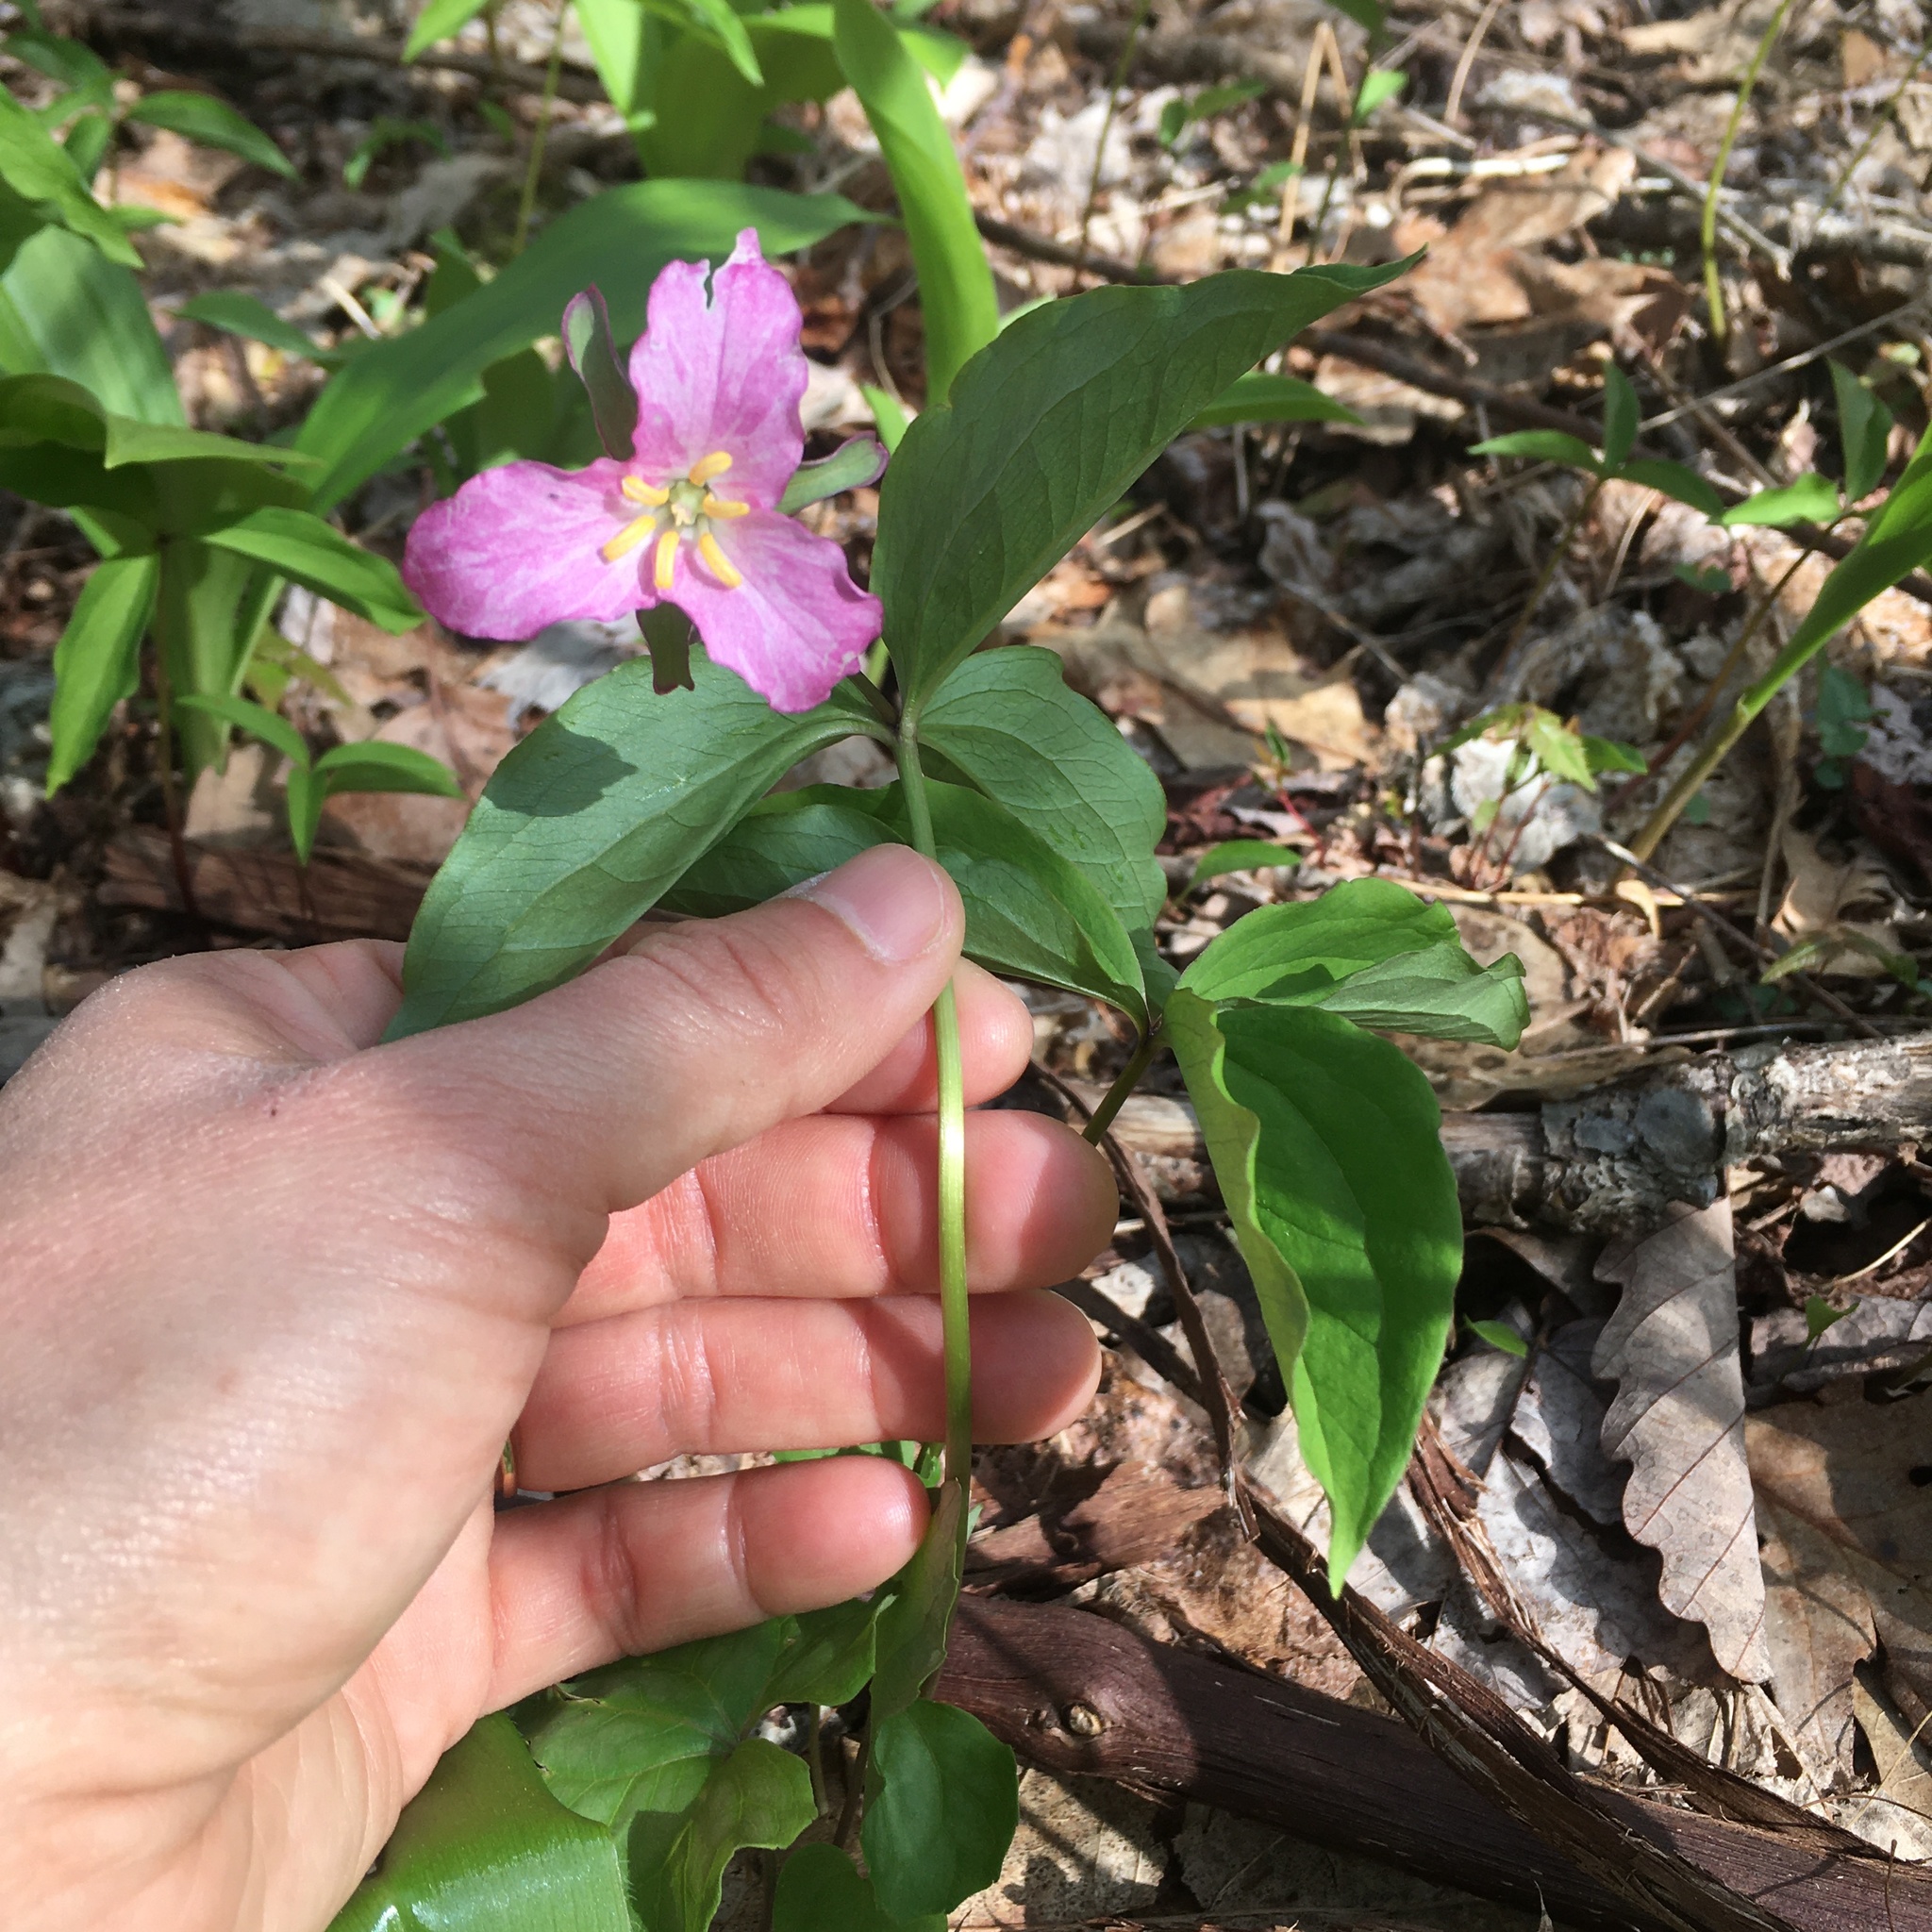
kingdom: Plantae
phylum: Tracheophyta
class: Liliopsida
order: Liliales
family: Melanthiaceae
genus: Trillium
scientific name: Trillium catesbaei
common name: Bashful trillium
